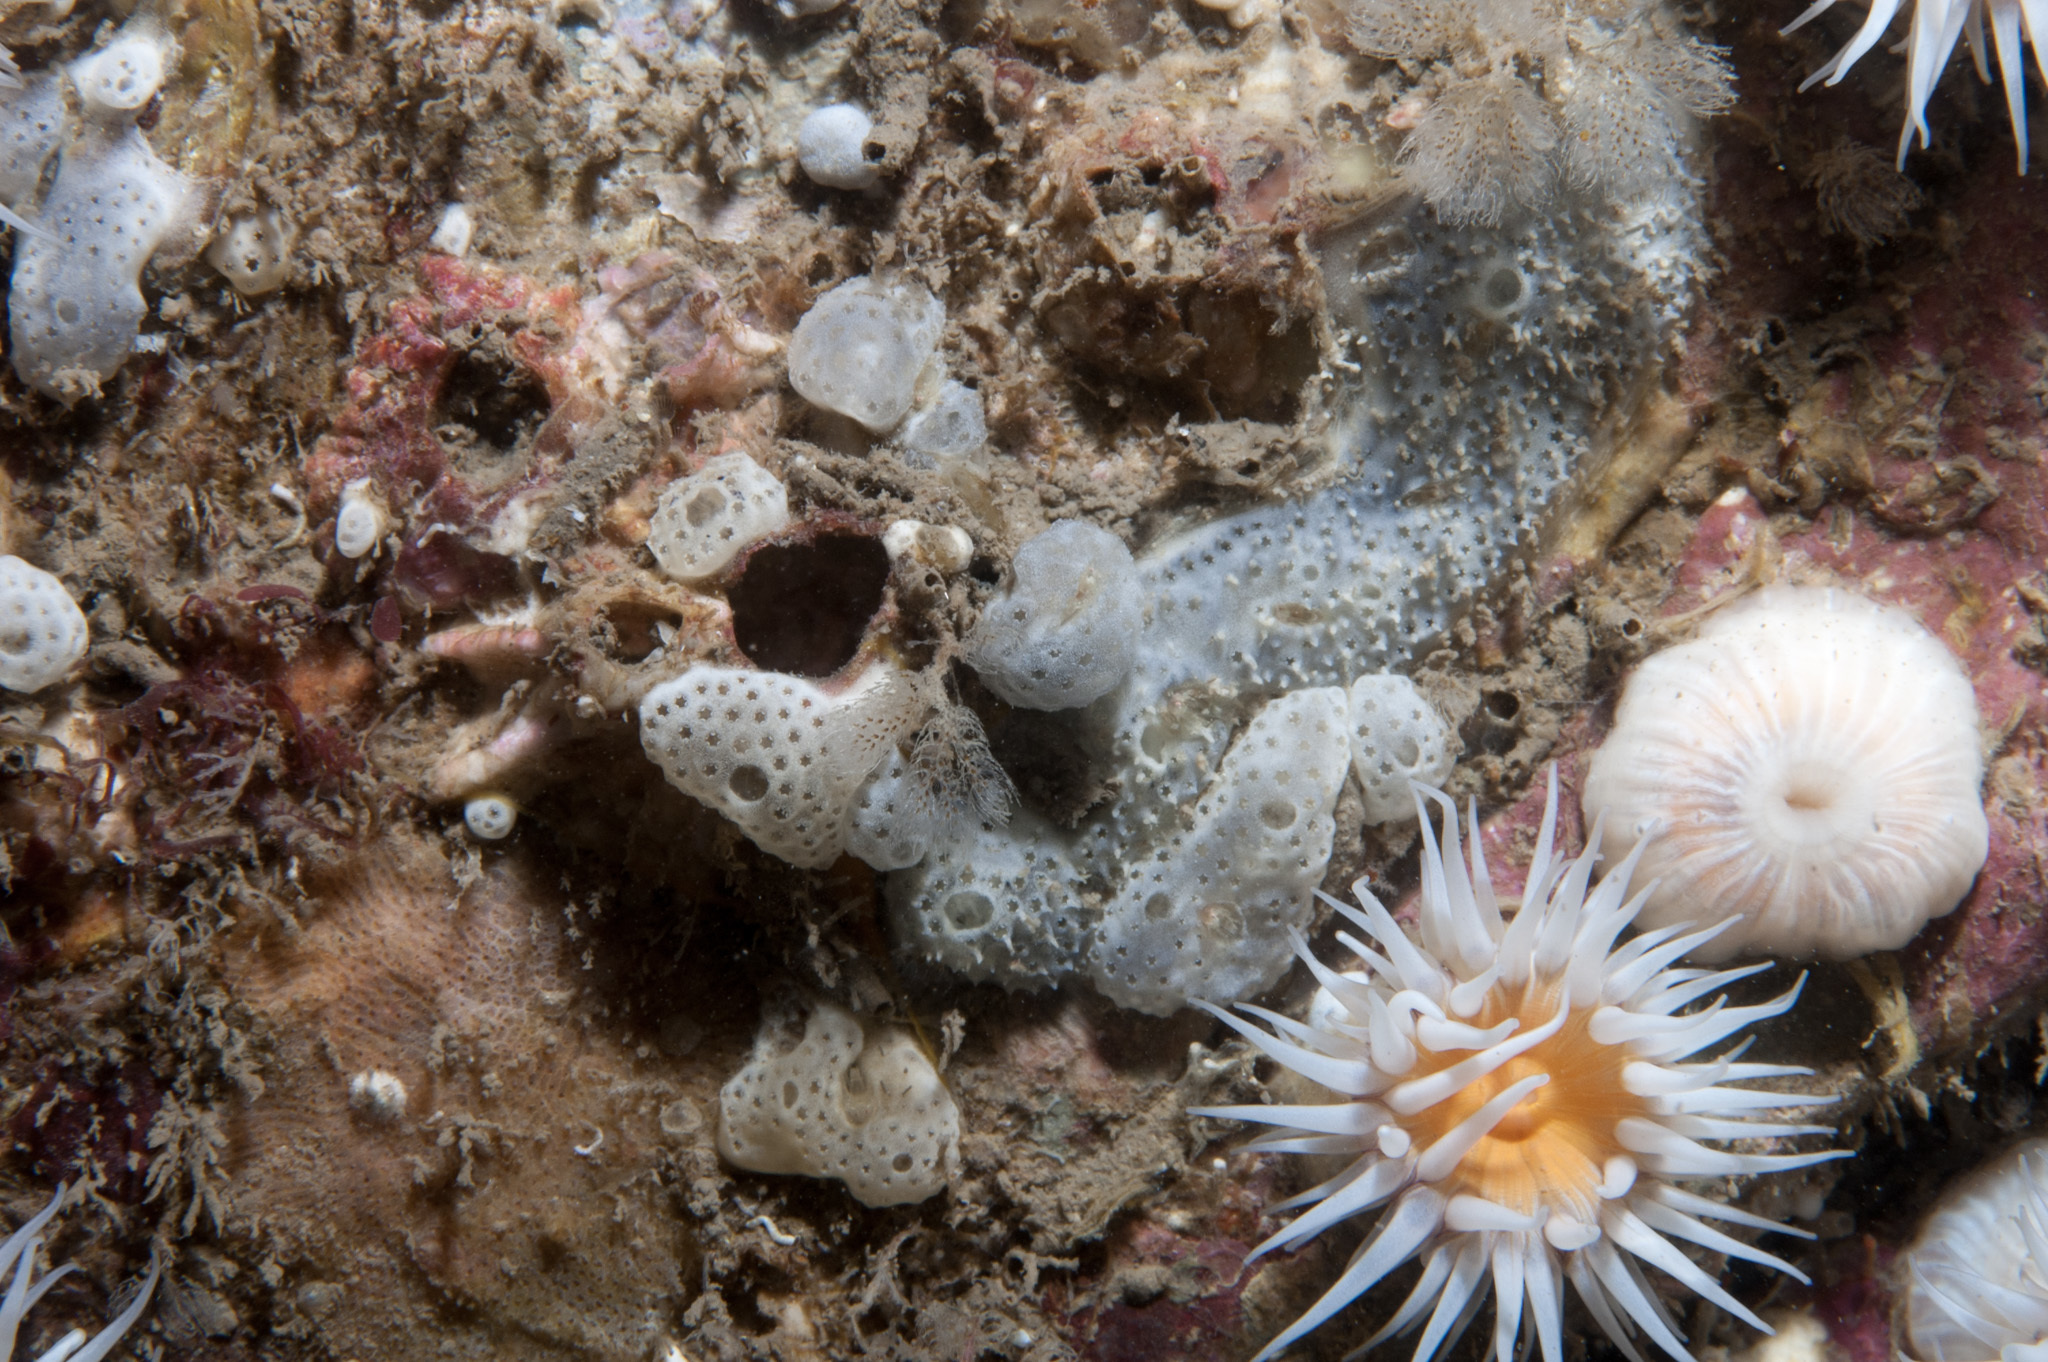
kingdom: Animalia
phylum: Chordata
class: Ascidiacea
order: Aplousobranchia
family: Didemnidae
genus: Didemnum
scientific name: Didemnum maculosum
